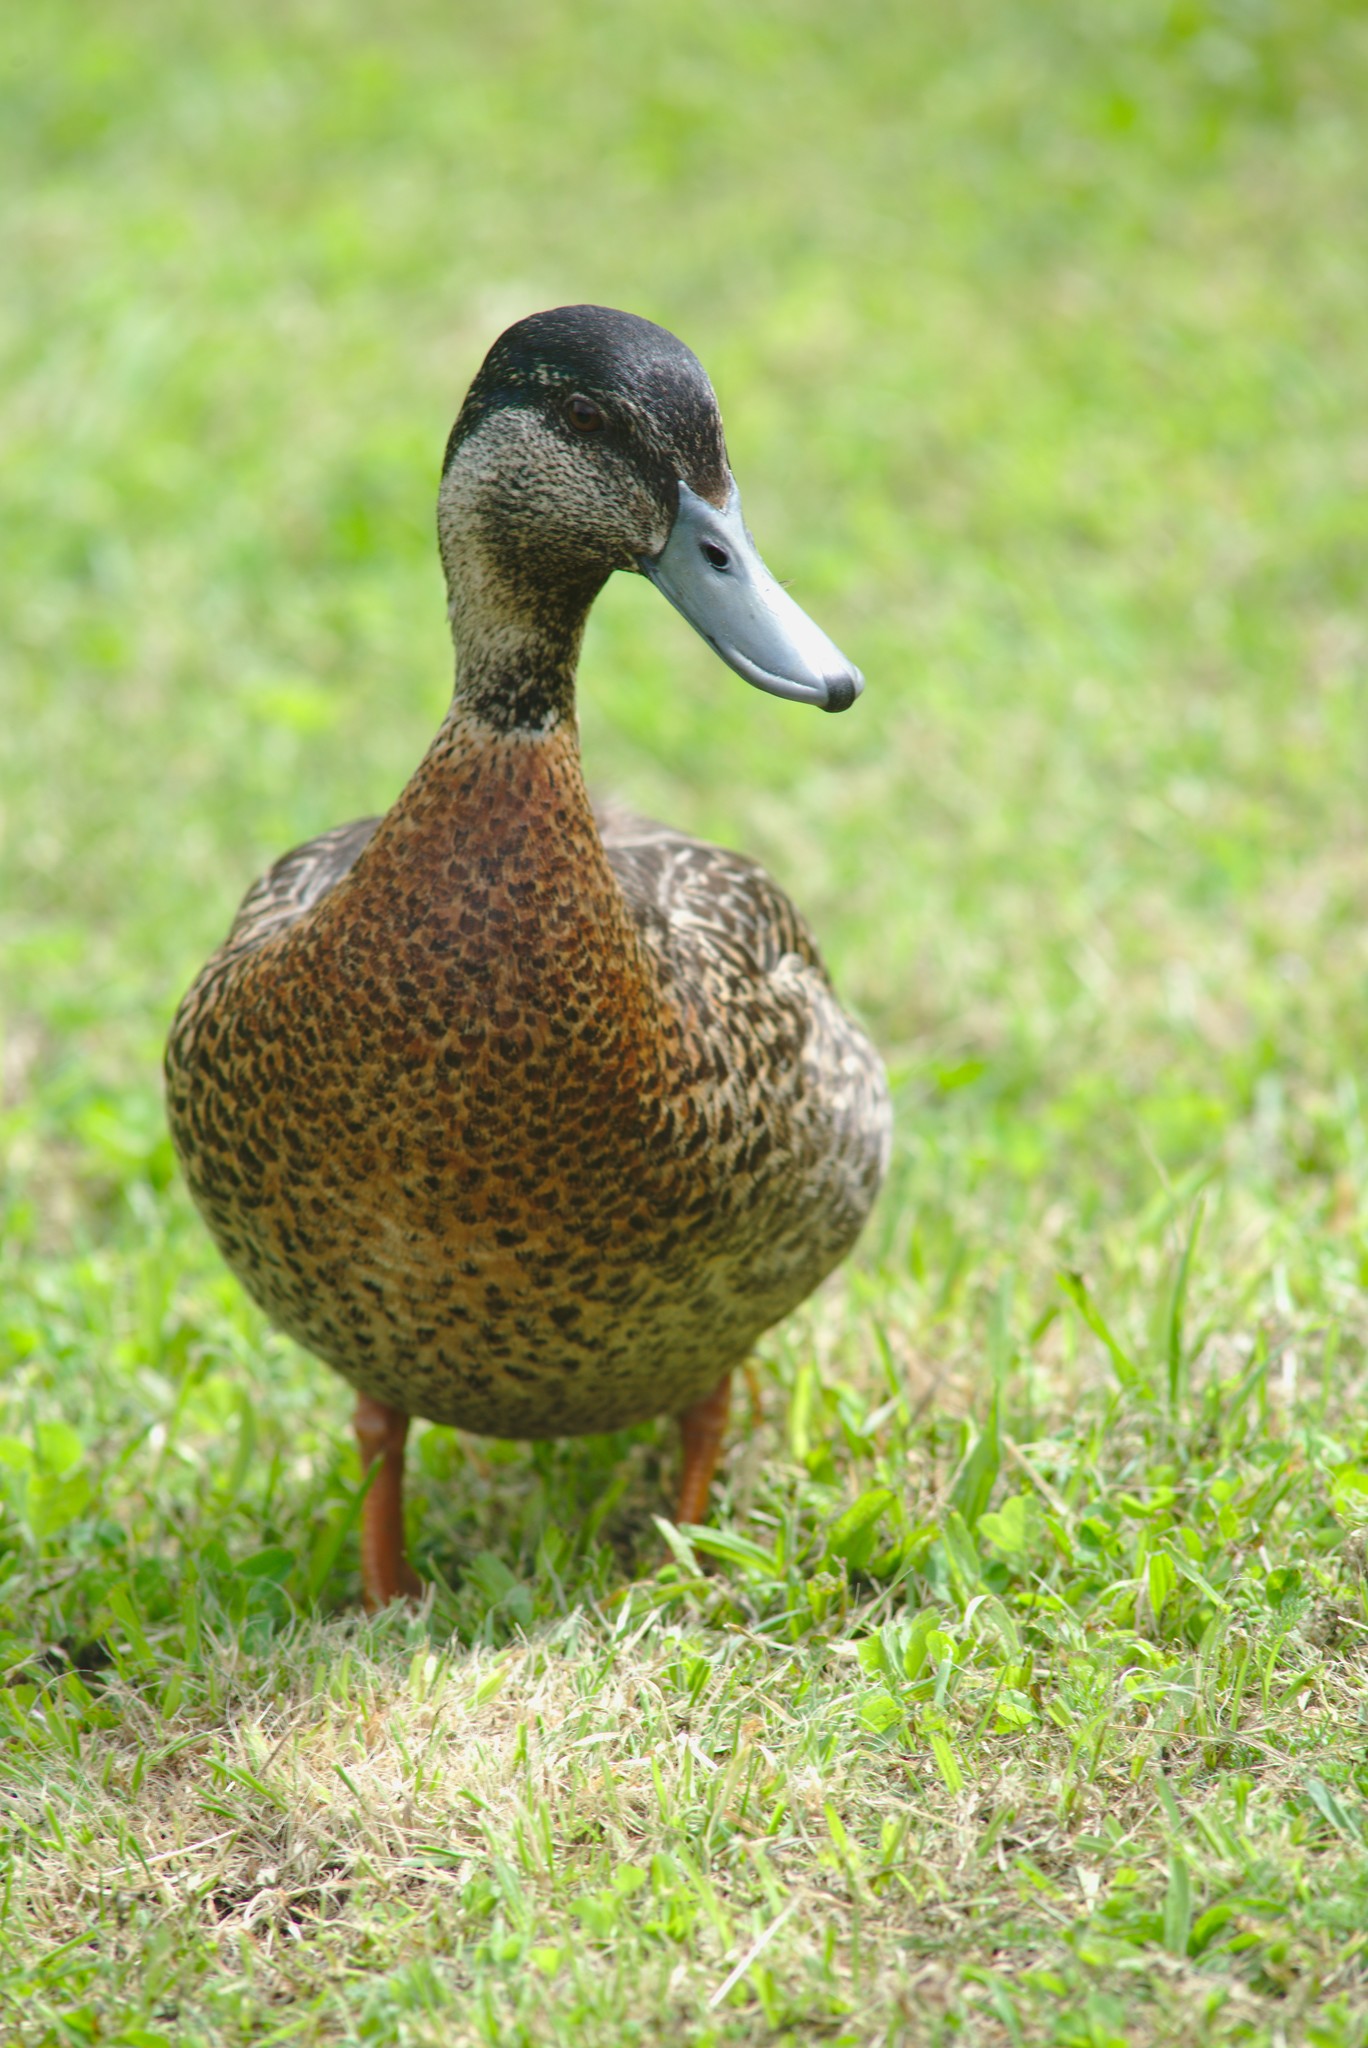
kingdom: Animalia
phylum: Chordata
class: Aves
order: Anseriformes
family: Anatidae
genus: Anas
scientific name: Anas
